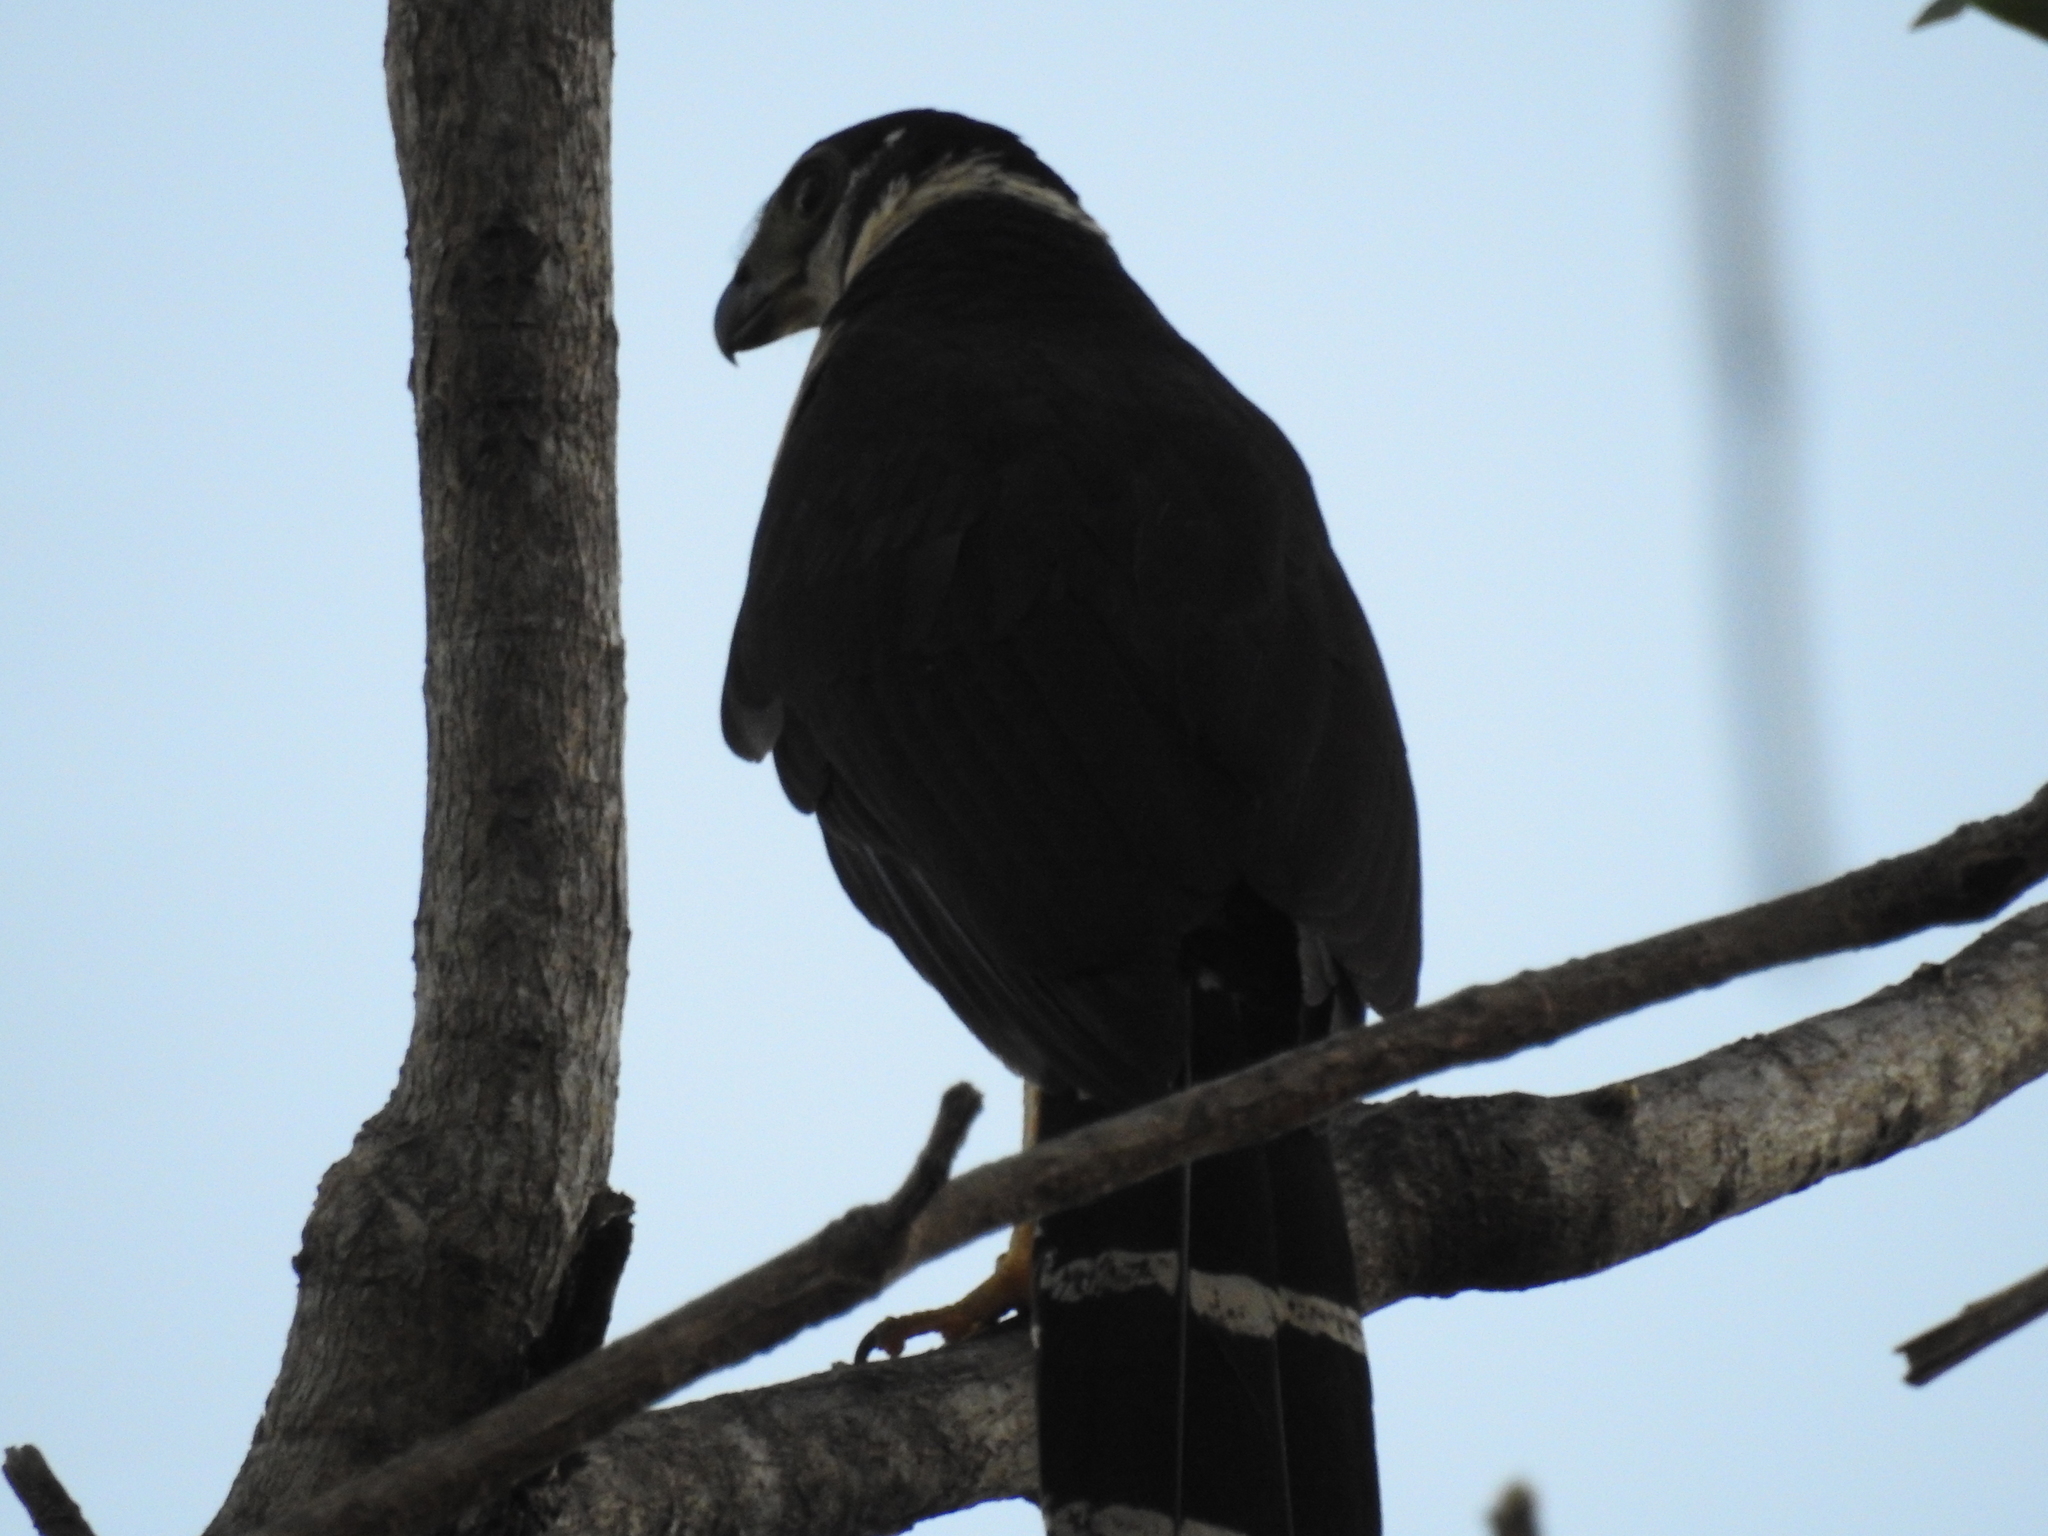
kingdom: Animalia
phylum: Chordata
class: Aves
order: Falconiformes
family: Falconidae
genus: Micrastur
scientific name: Micrastur semitorquatus
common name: Collared forest-falcon
